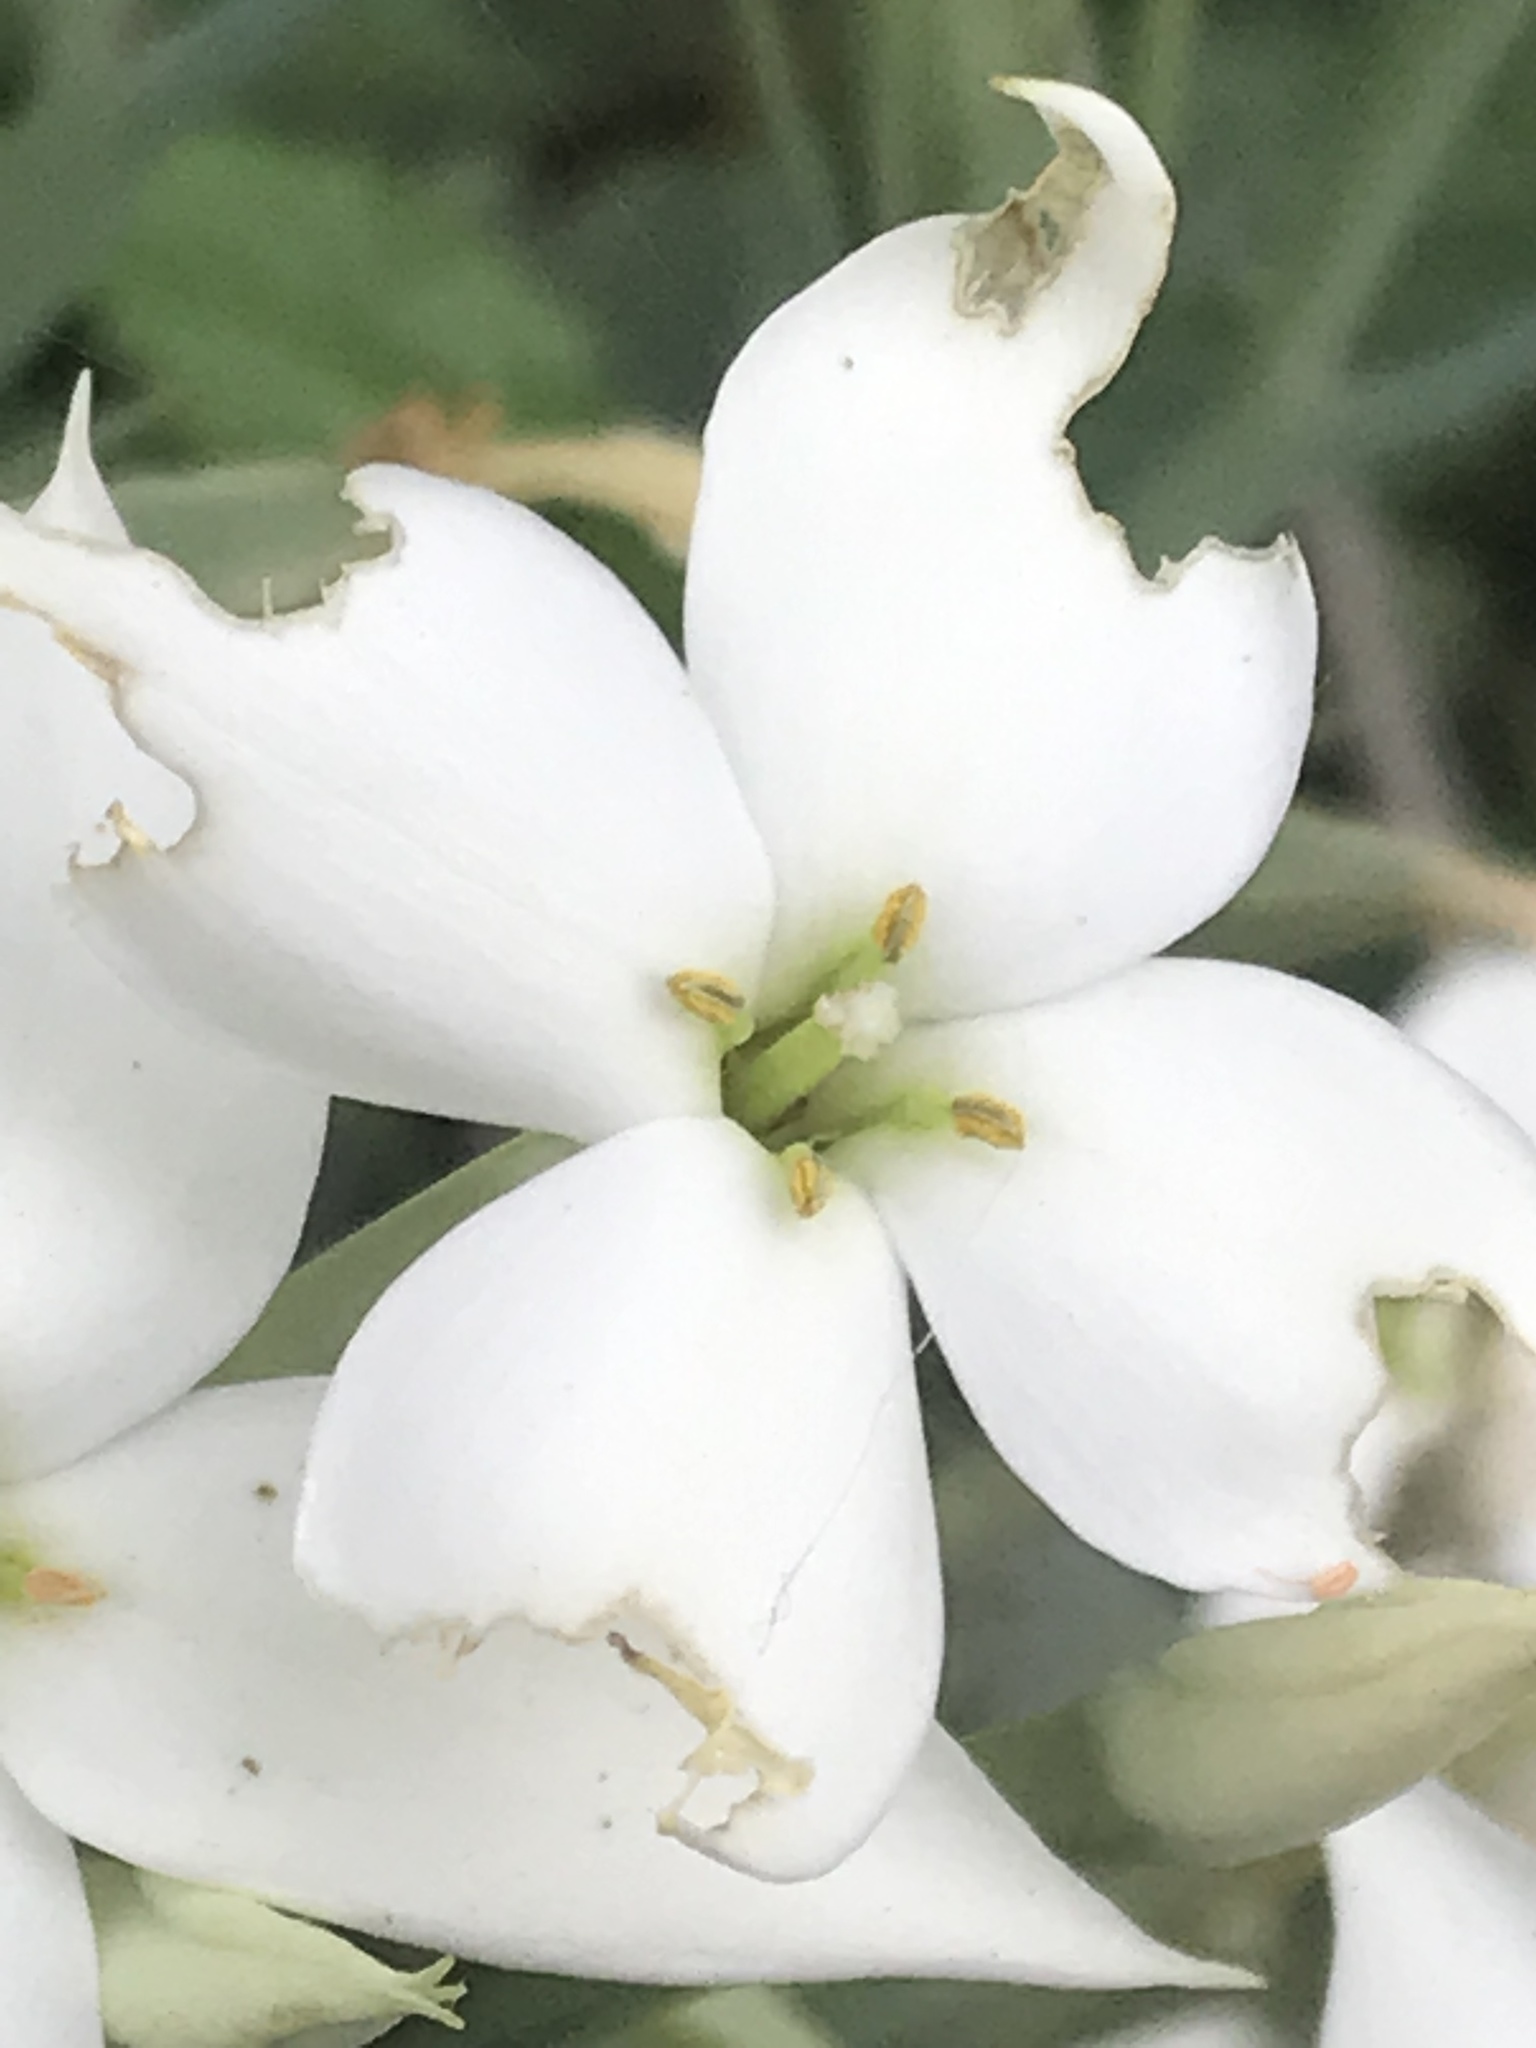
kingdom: Plantae
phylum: Tracheophyta
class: Magnoliopsida
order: Saxifragales
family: Crassulaceae
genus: Kalanchoe
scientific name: Kalanchoe marmorata
